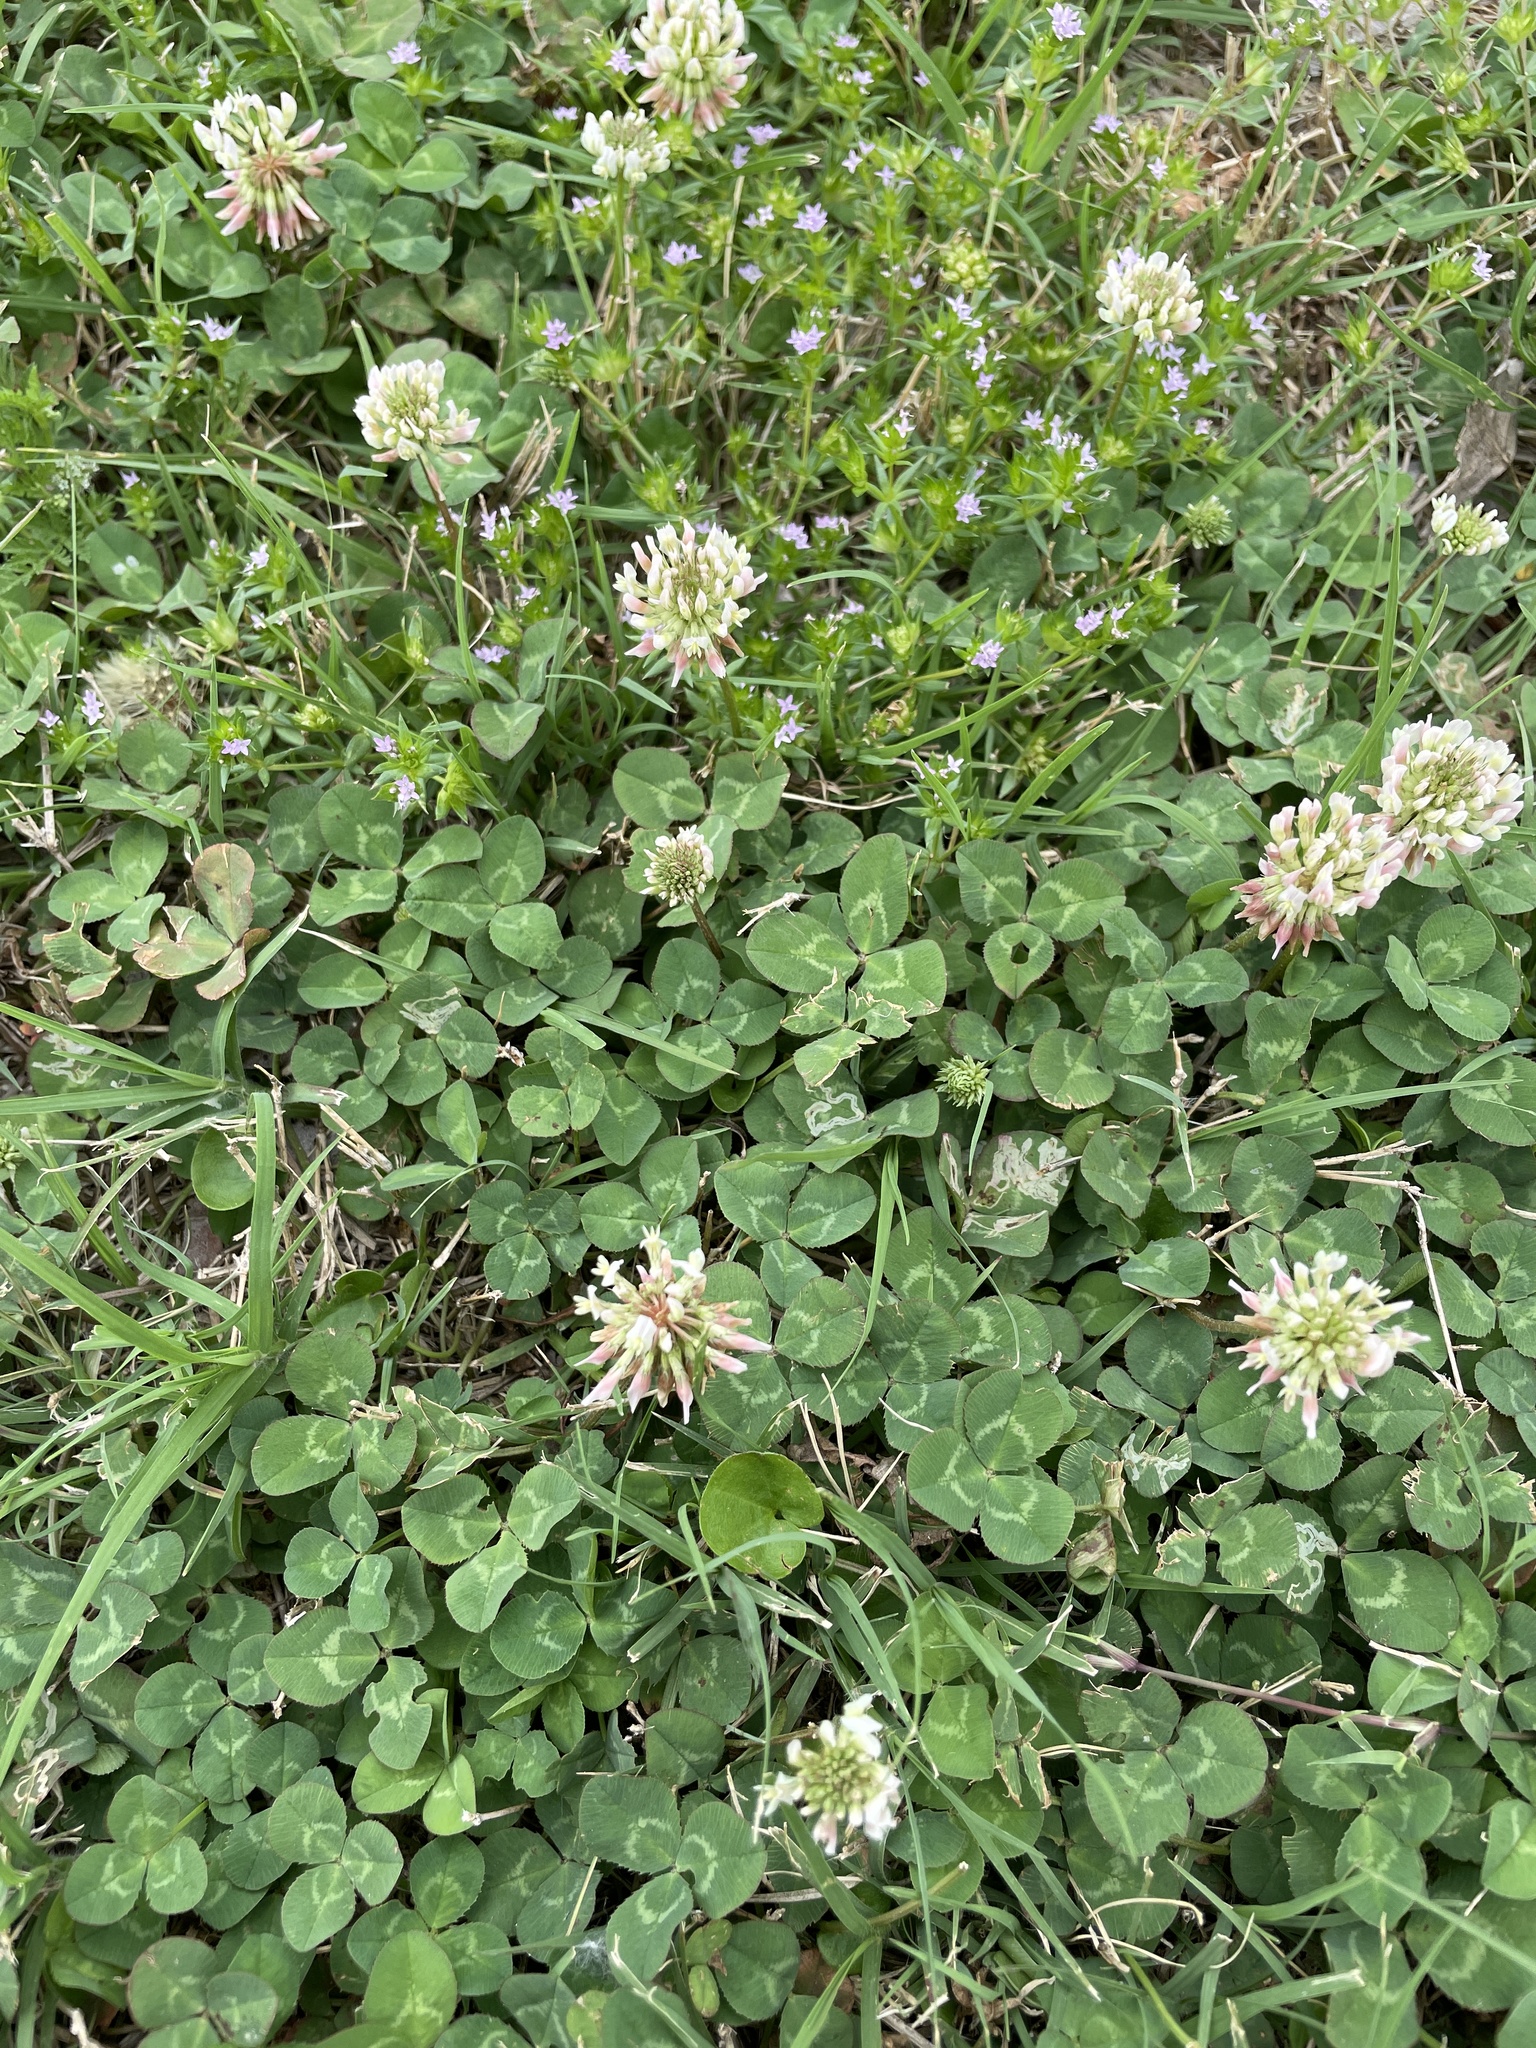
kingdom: Plantae
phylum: Tracheophyta
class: Magnoliopsida
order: Fabales
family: Fabaceae
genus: Trifolium
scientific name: Trifolium repens
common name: White clover
